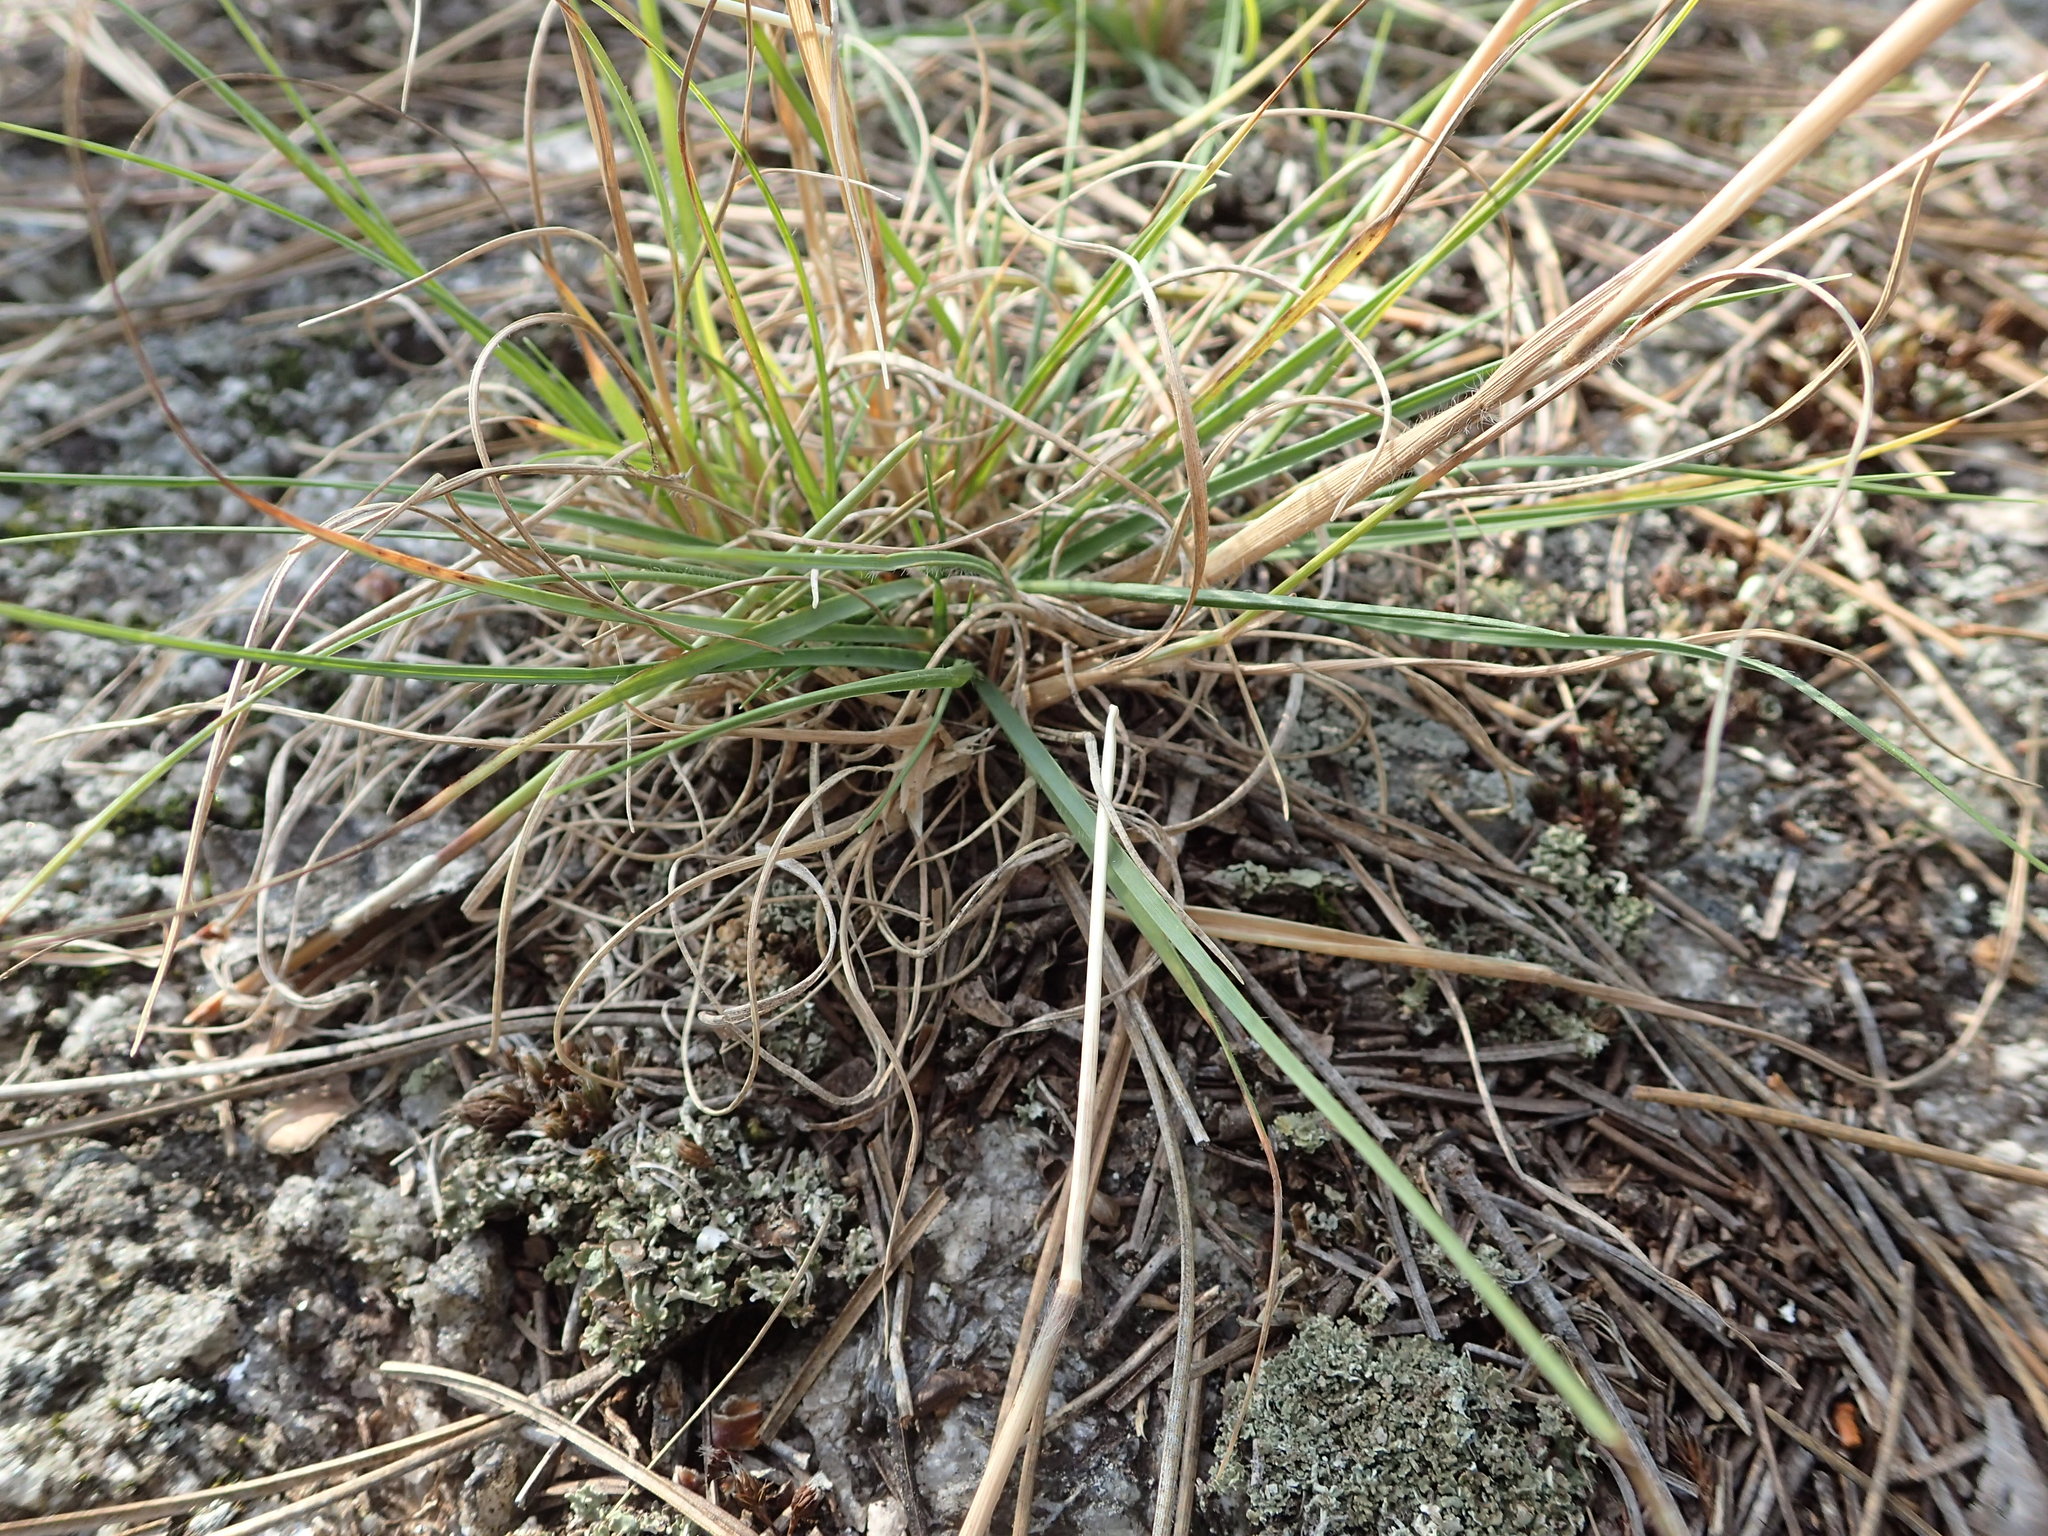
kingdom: Plantae
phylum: Tracheophyta
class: Liliopsida
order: Poales
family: Poaceae
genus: Danthonia
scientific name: Danthonia spicata
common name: Common wild oatgrass
